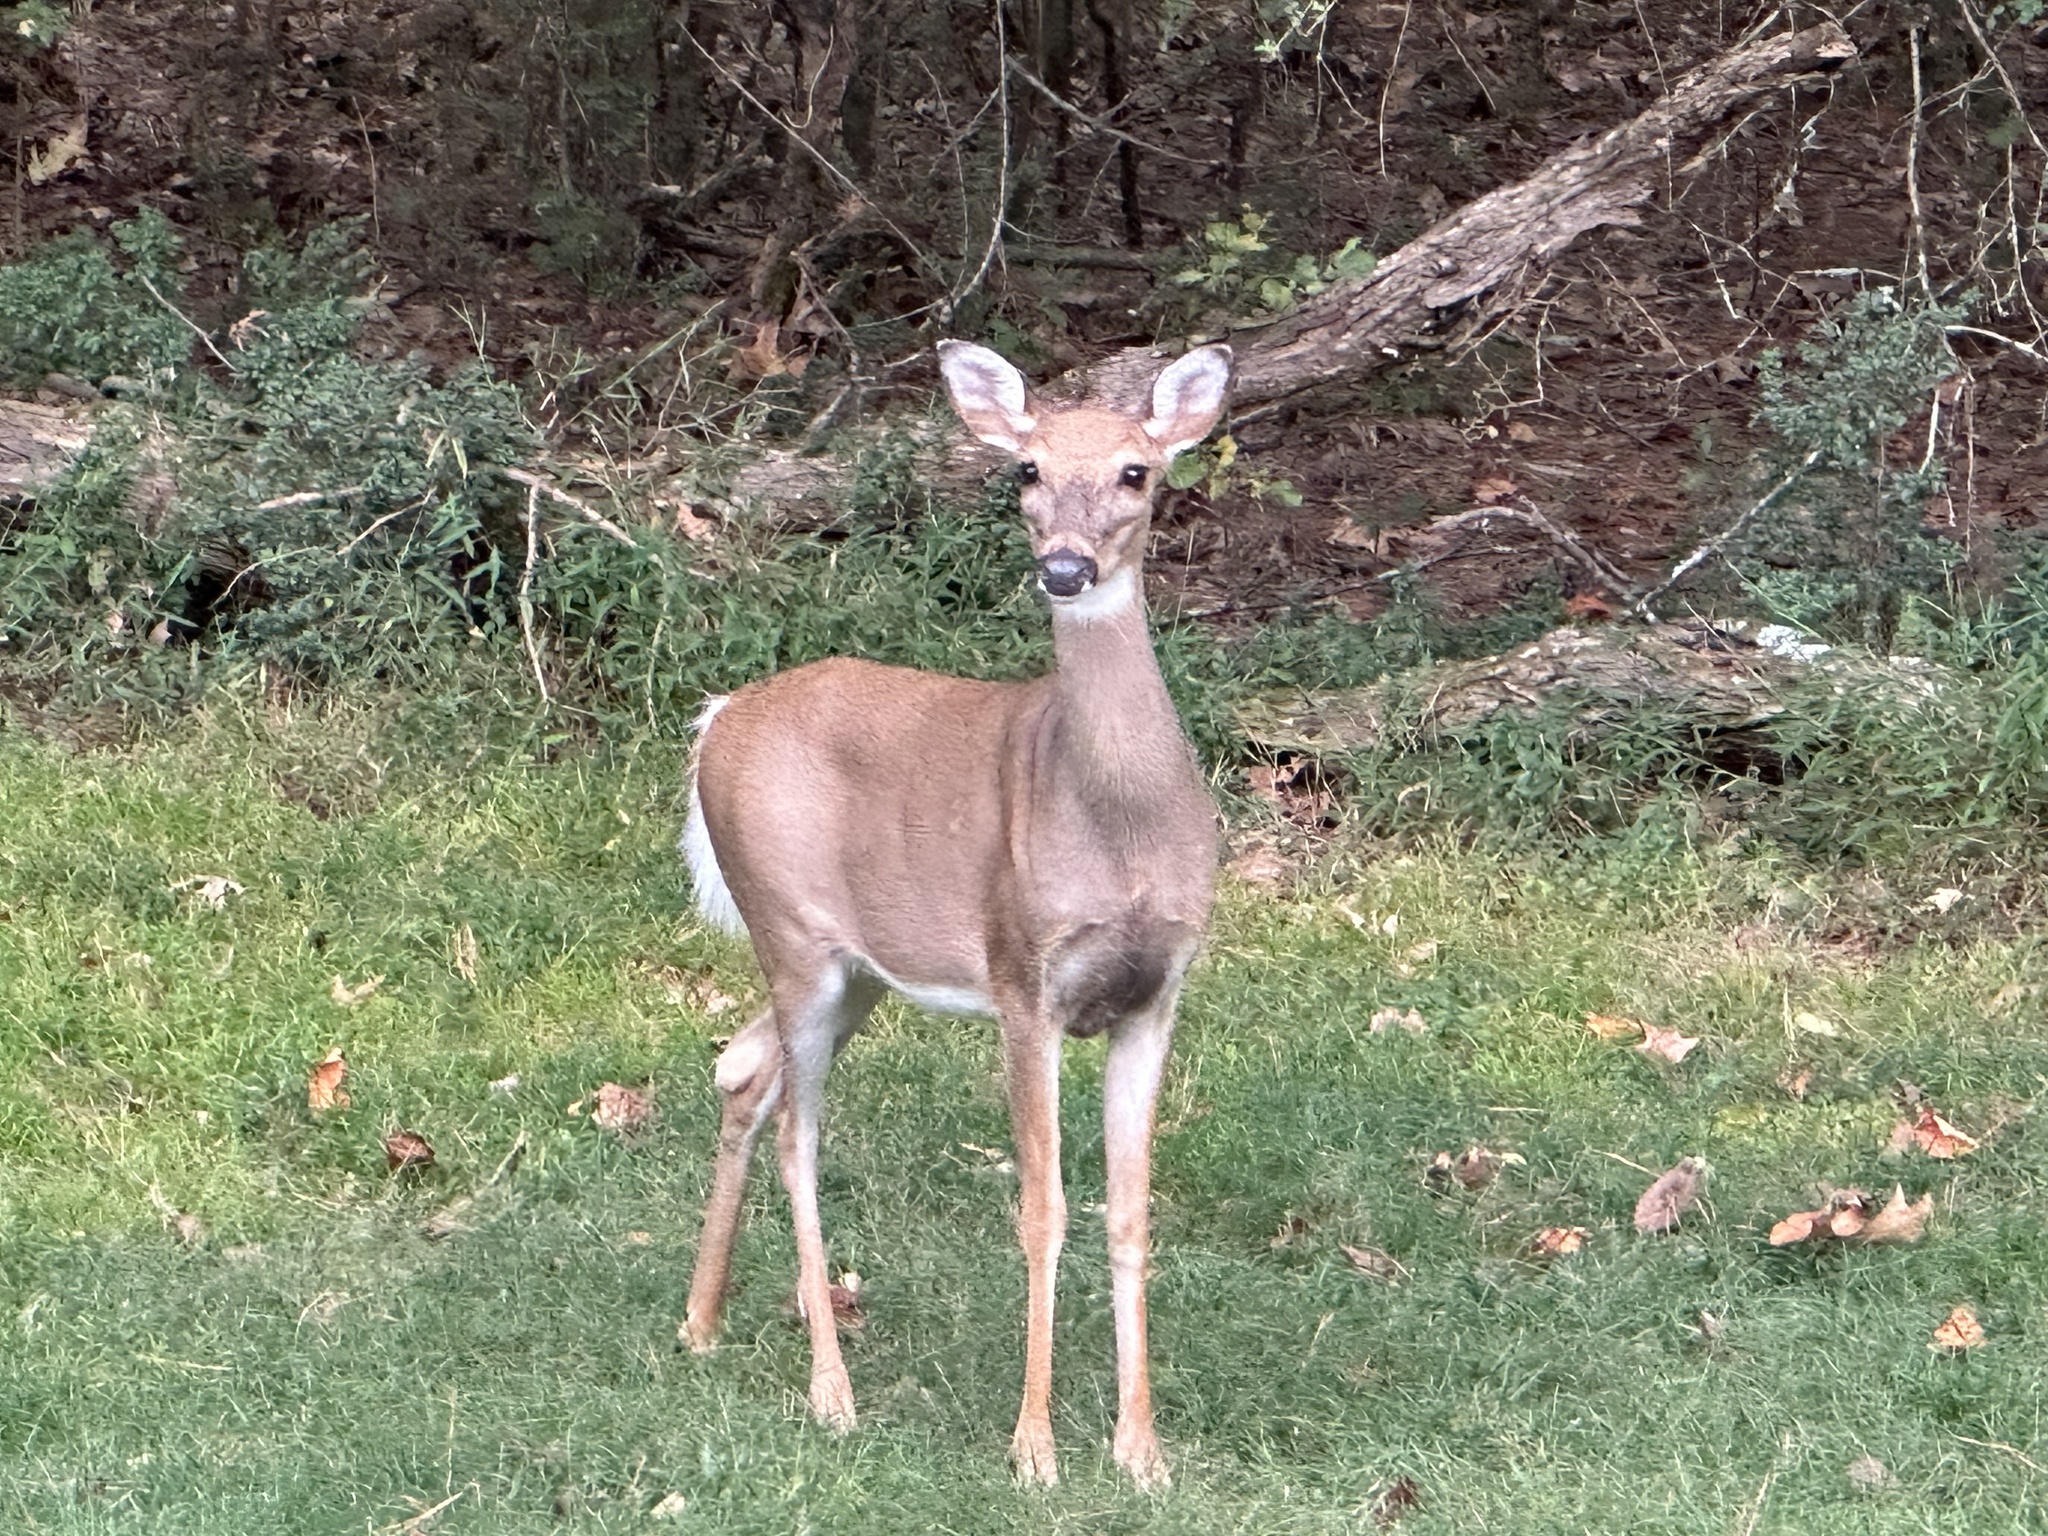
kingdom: Animalia
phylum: Chordata
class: Mammalia
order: Artiodactyla
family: Cervidae
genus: Odocoileus
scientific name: Odocoileus virginianus
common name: White-tailed deer
